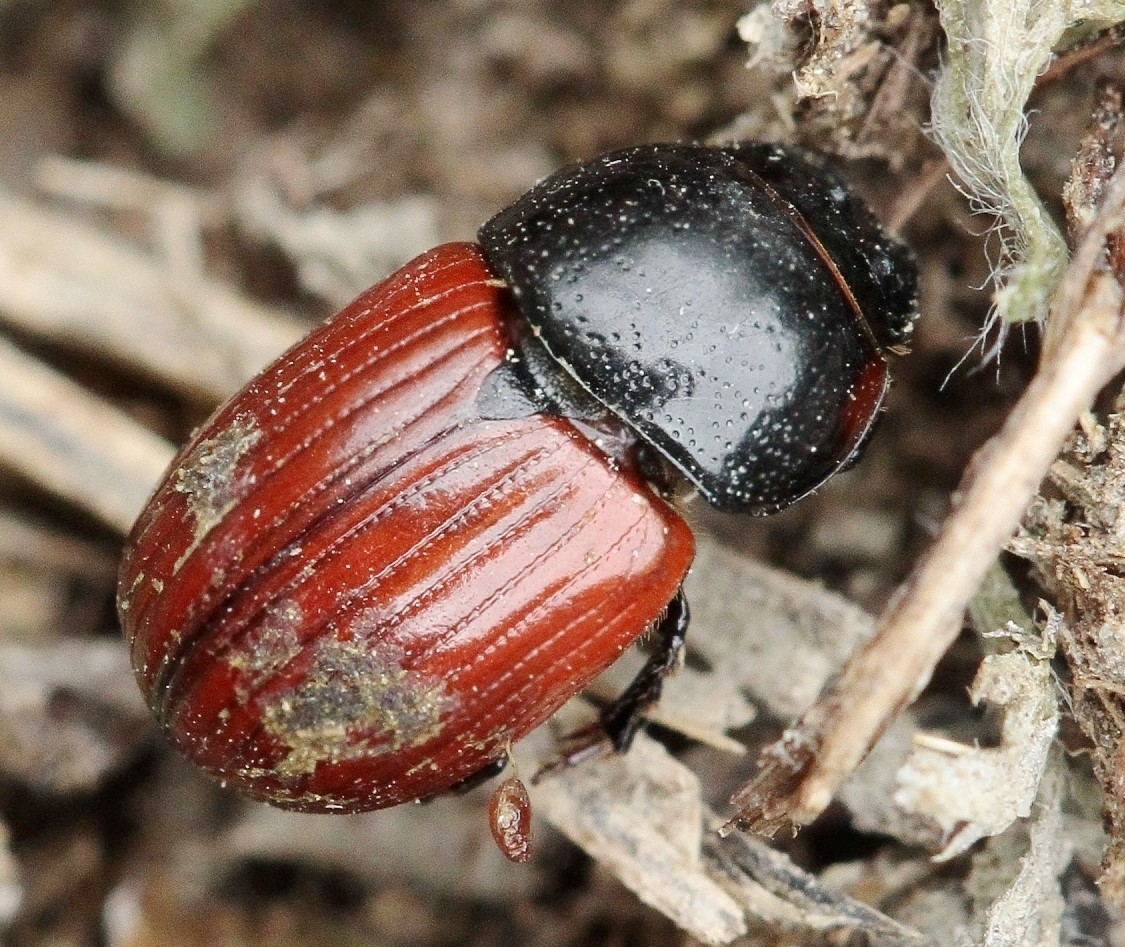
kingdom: Animalia
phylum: Arthropoda
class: Insecta
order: Coleoptera
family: Scarabaeidae
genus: Aphodius
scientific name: Aphodius fimetarius
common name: Common dung beetle
